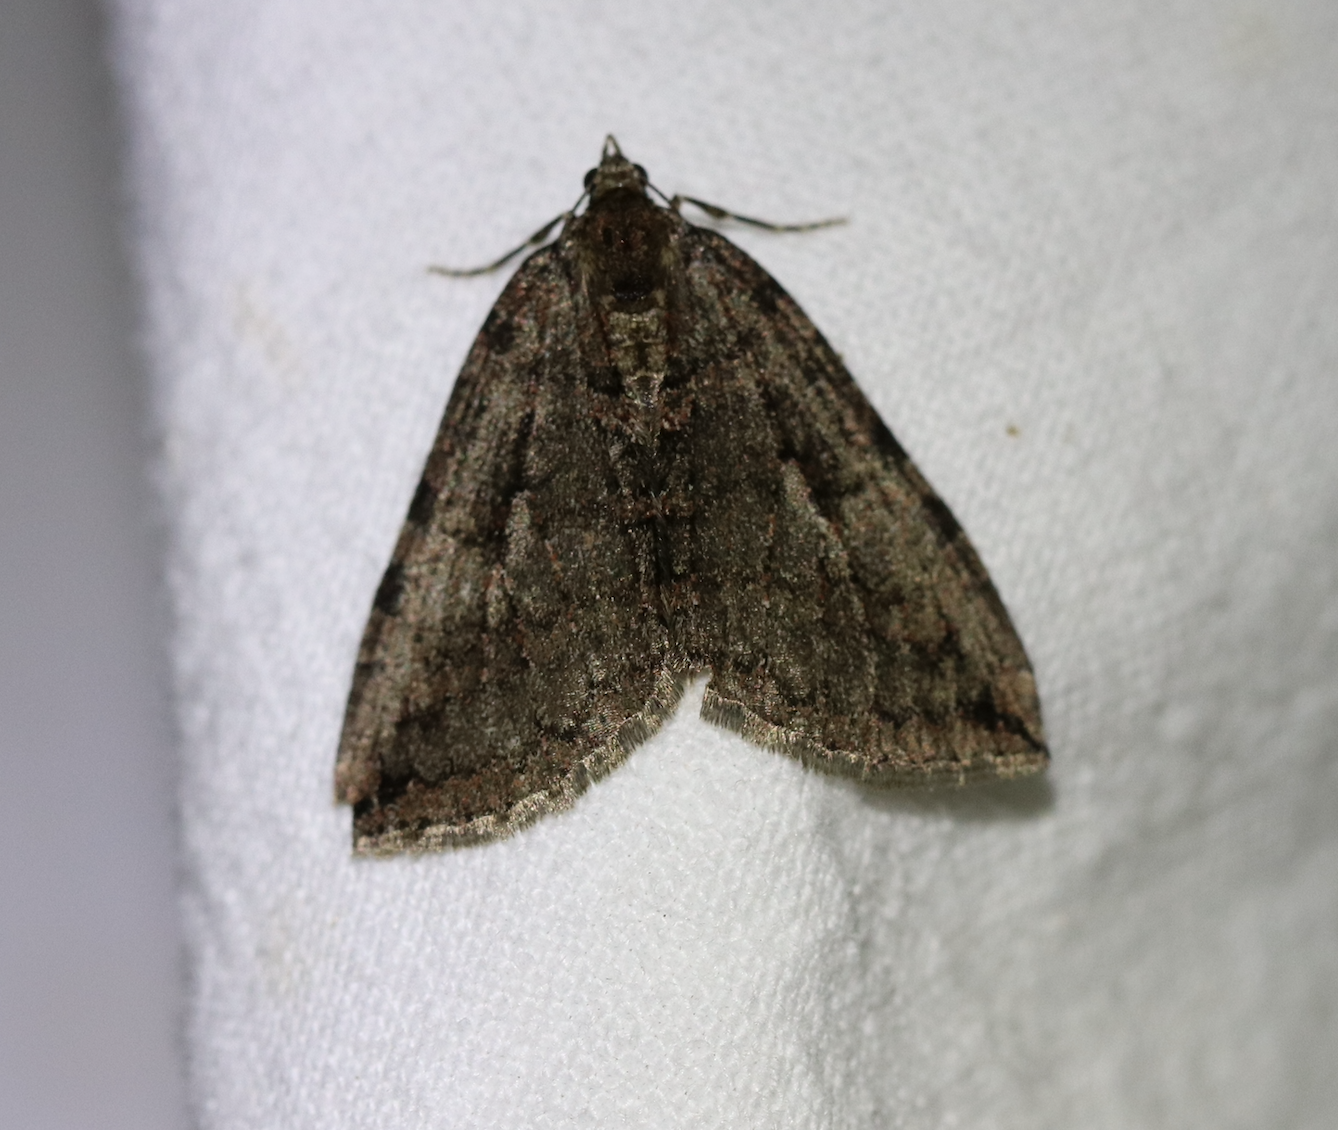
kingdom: Animalia
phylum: Arthropoda
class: Insecta
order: Lepidoptera
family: Geometridae
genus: Hydriomena
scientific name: Hydriomena furcata
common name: July highflyer
